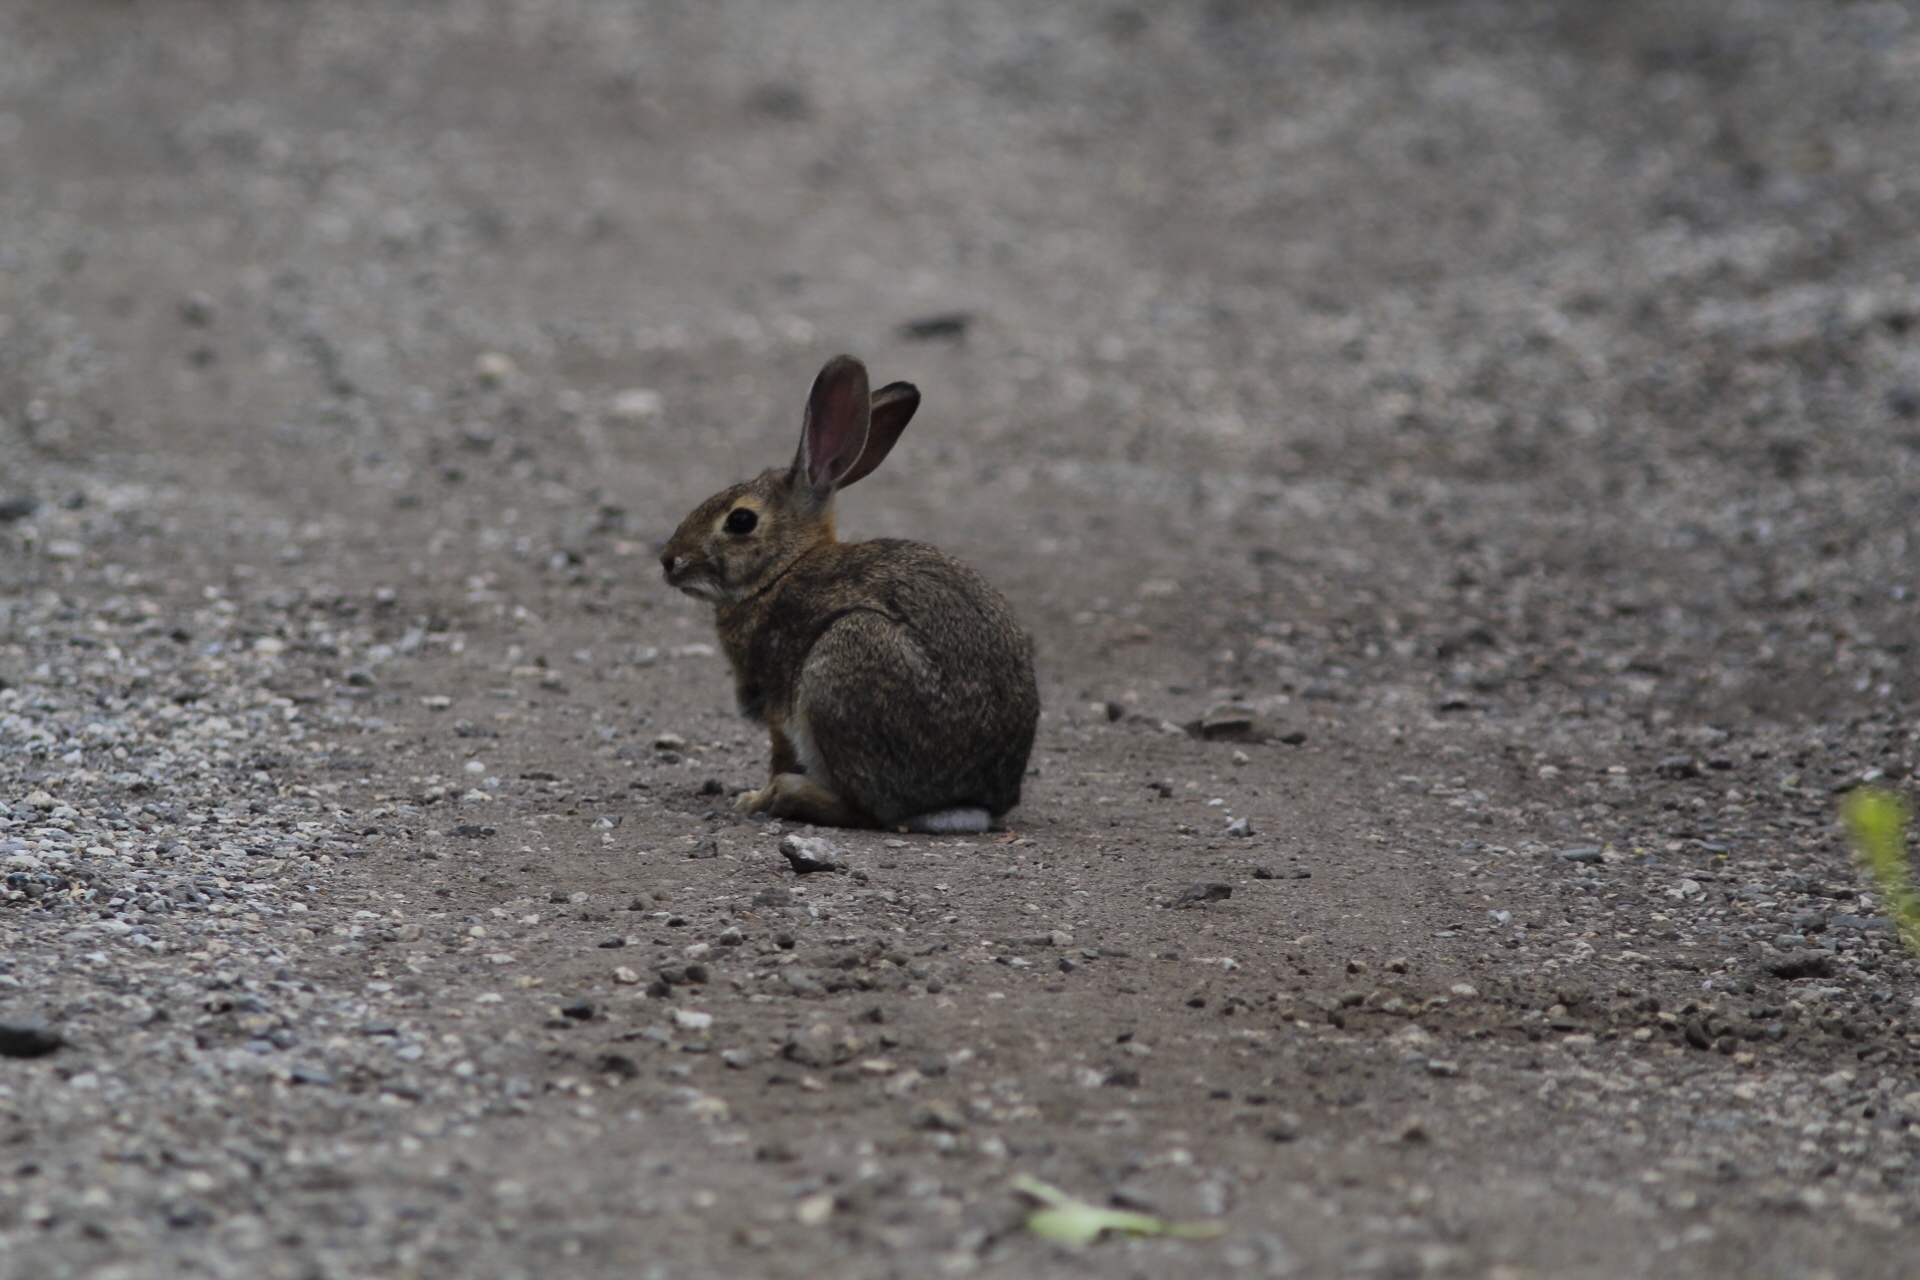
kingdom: Animalia
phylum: Chordata
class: Mammalia
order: Lagomorpha
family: Leporidae
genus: Sylvilagus
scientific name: Sylvilagus audubonii
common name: Desert cottontail
